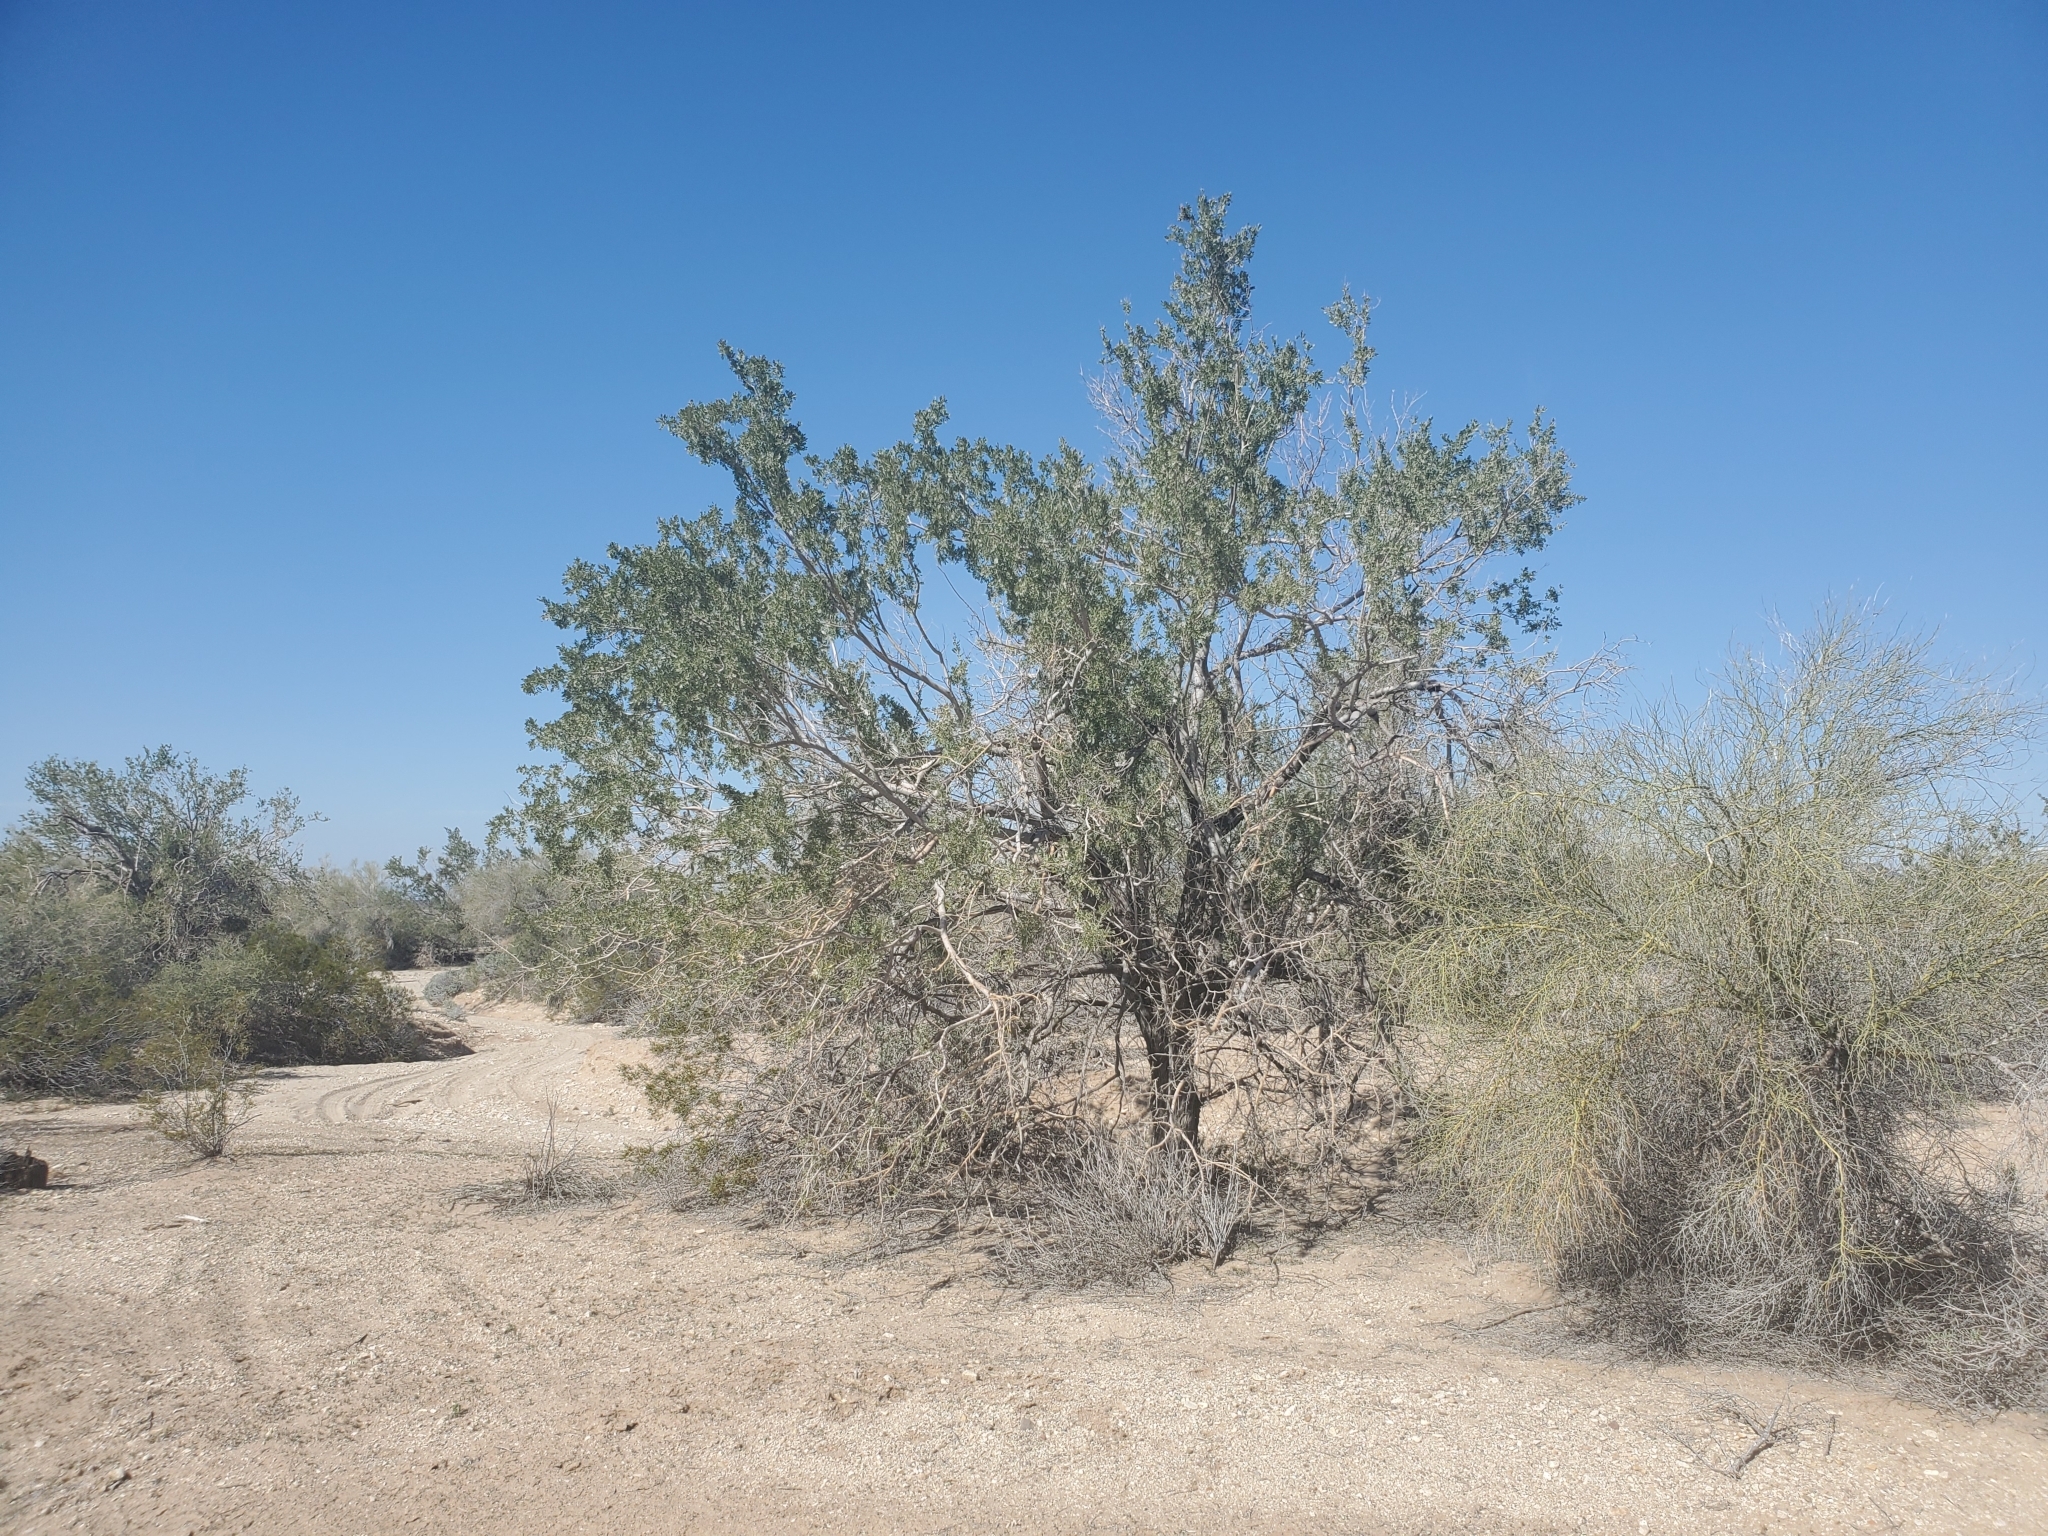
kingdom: Plantae
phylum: Tracheophyta
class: Magnoliopsida
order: Fabales
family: Fabaceae
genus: Olneya
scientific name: Olneya tesota
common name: Desert ironwood
